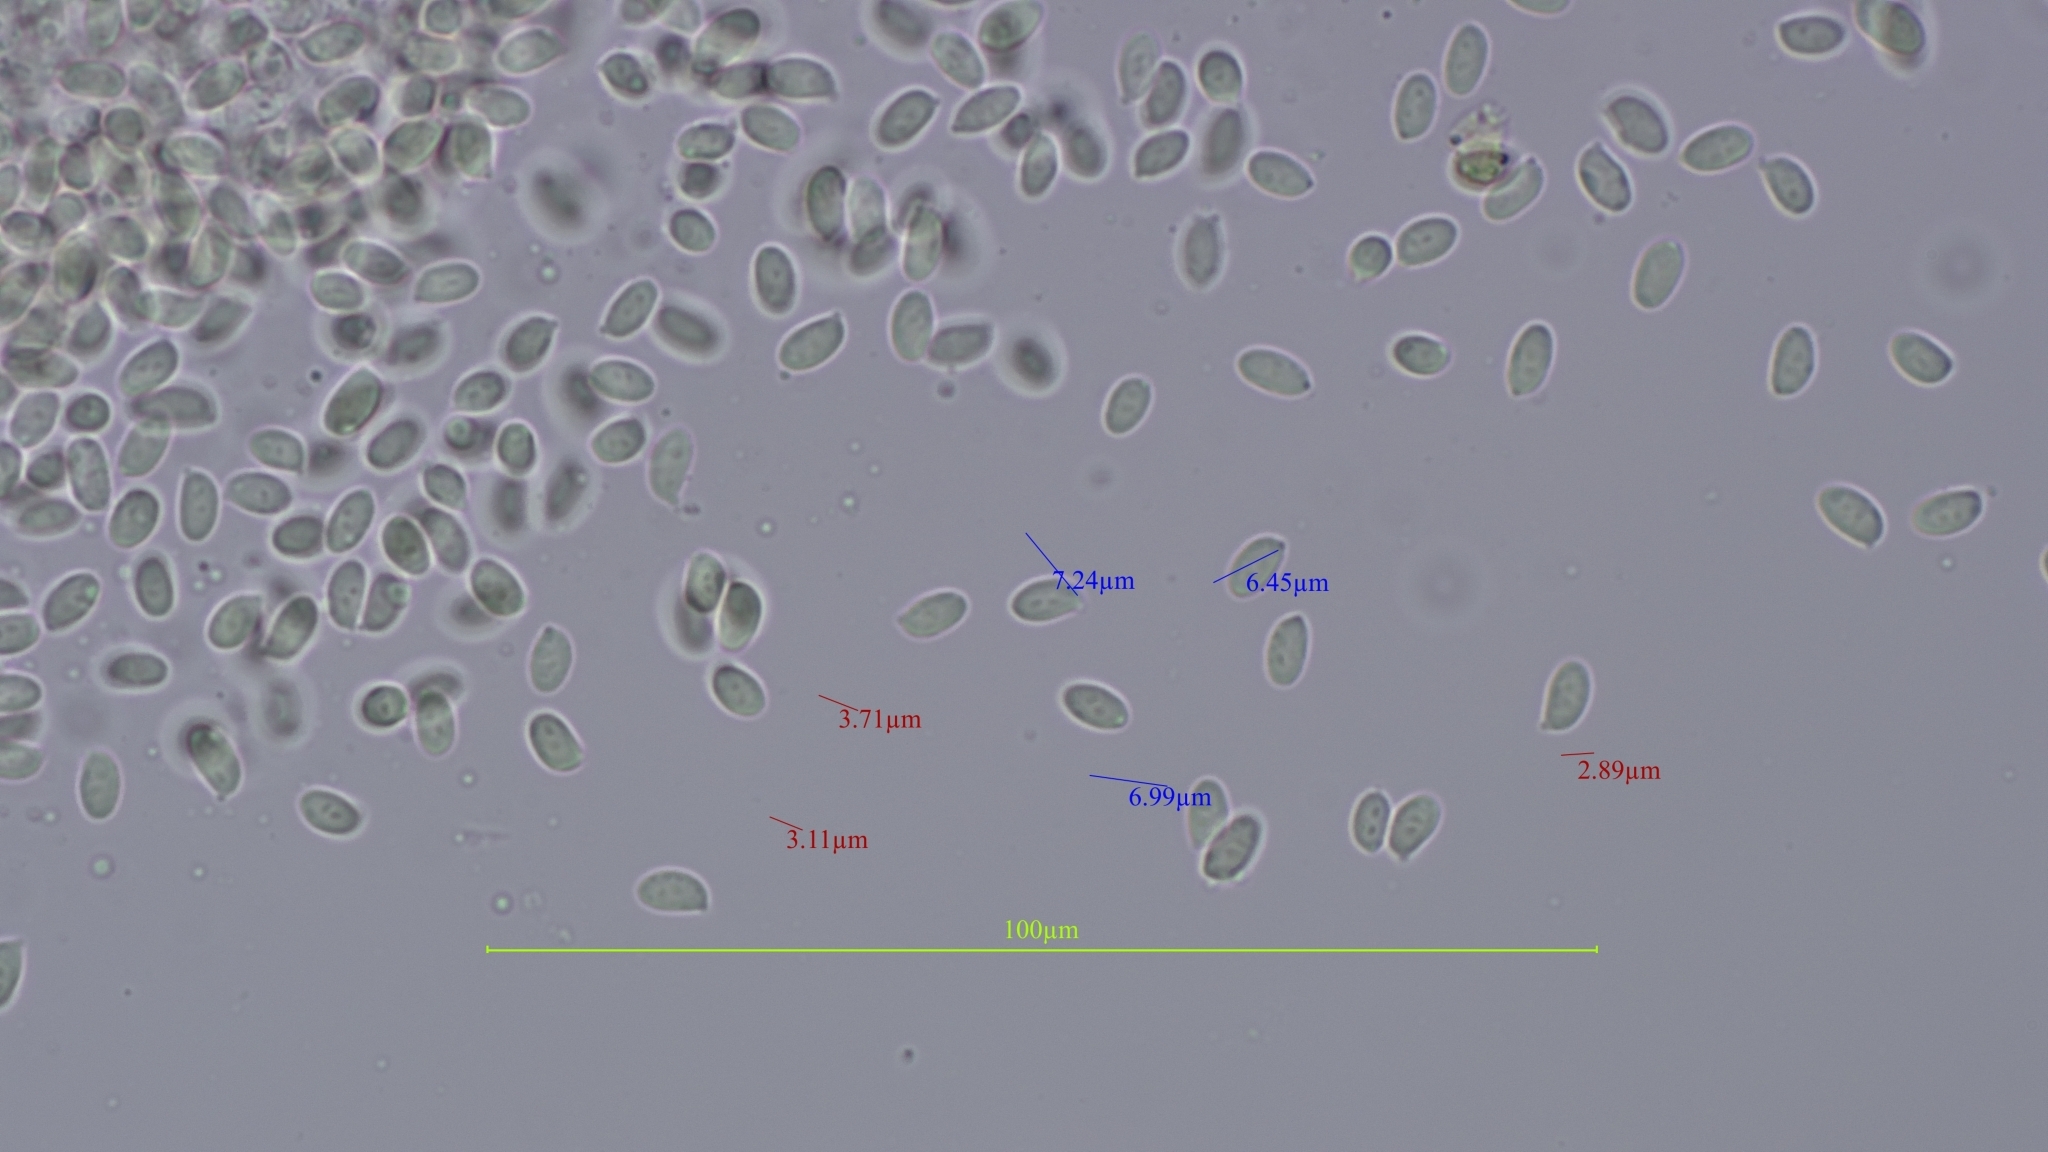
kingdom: Fungi
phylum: Basidiomycota
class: Agaricomycetes
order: Agaricales
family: Physalacriaceae
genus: Flammulina
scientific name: Flammulina velutipes
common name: Velvet shank
